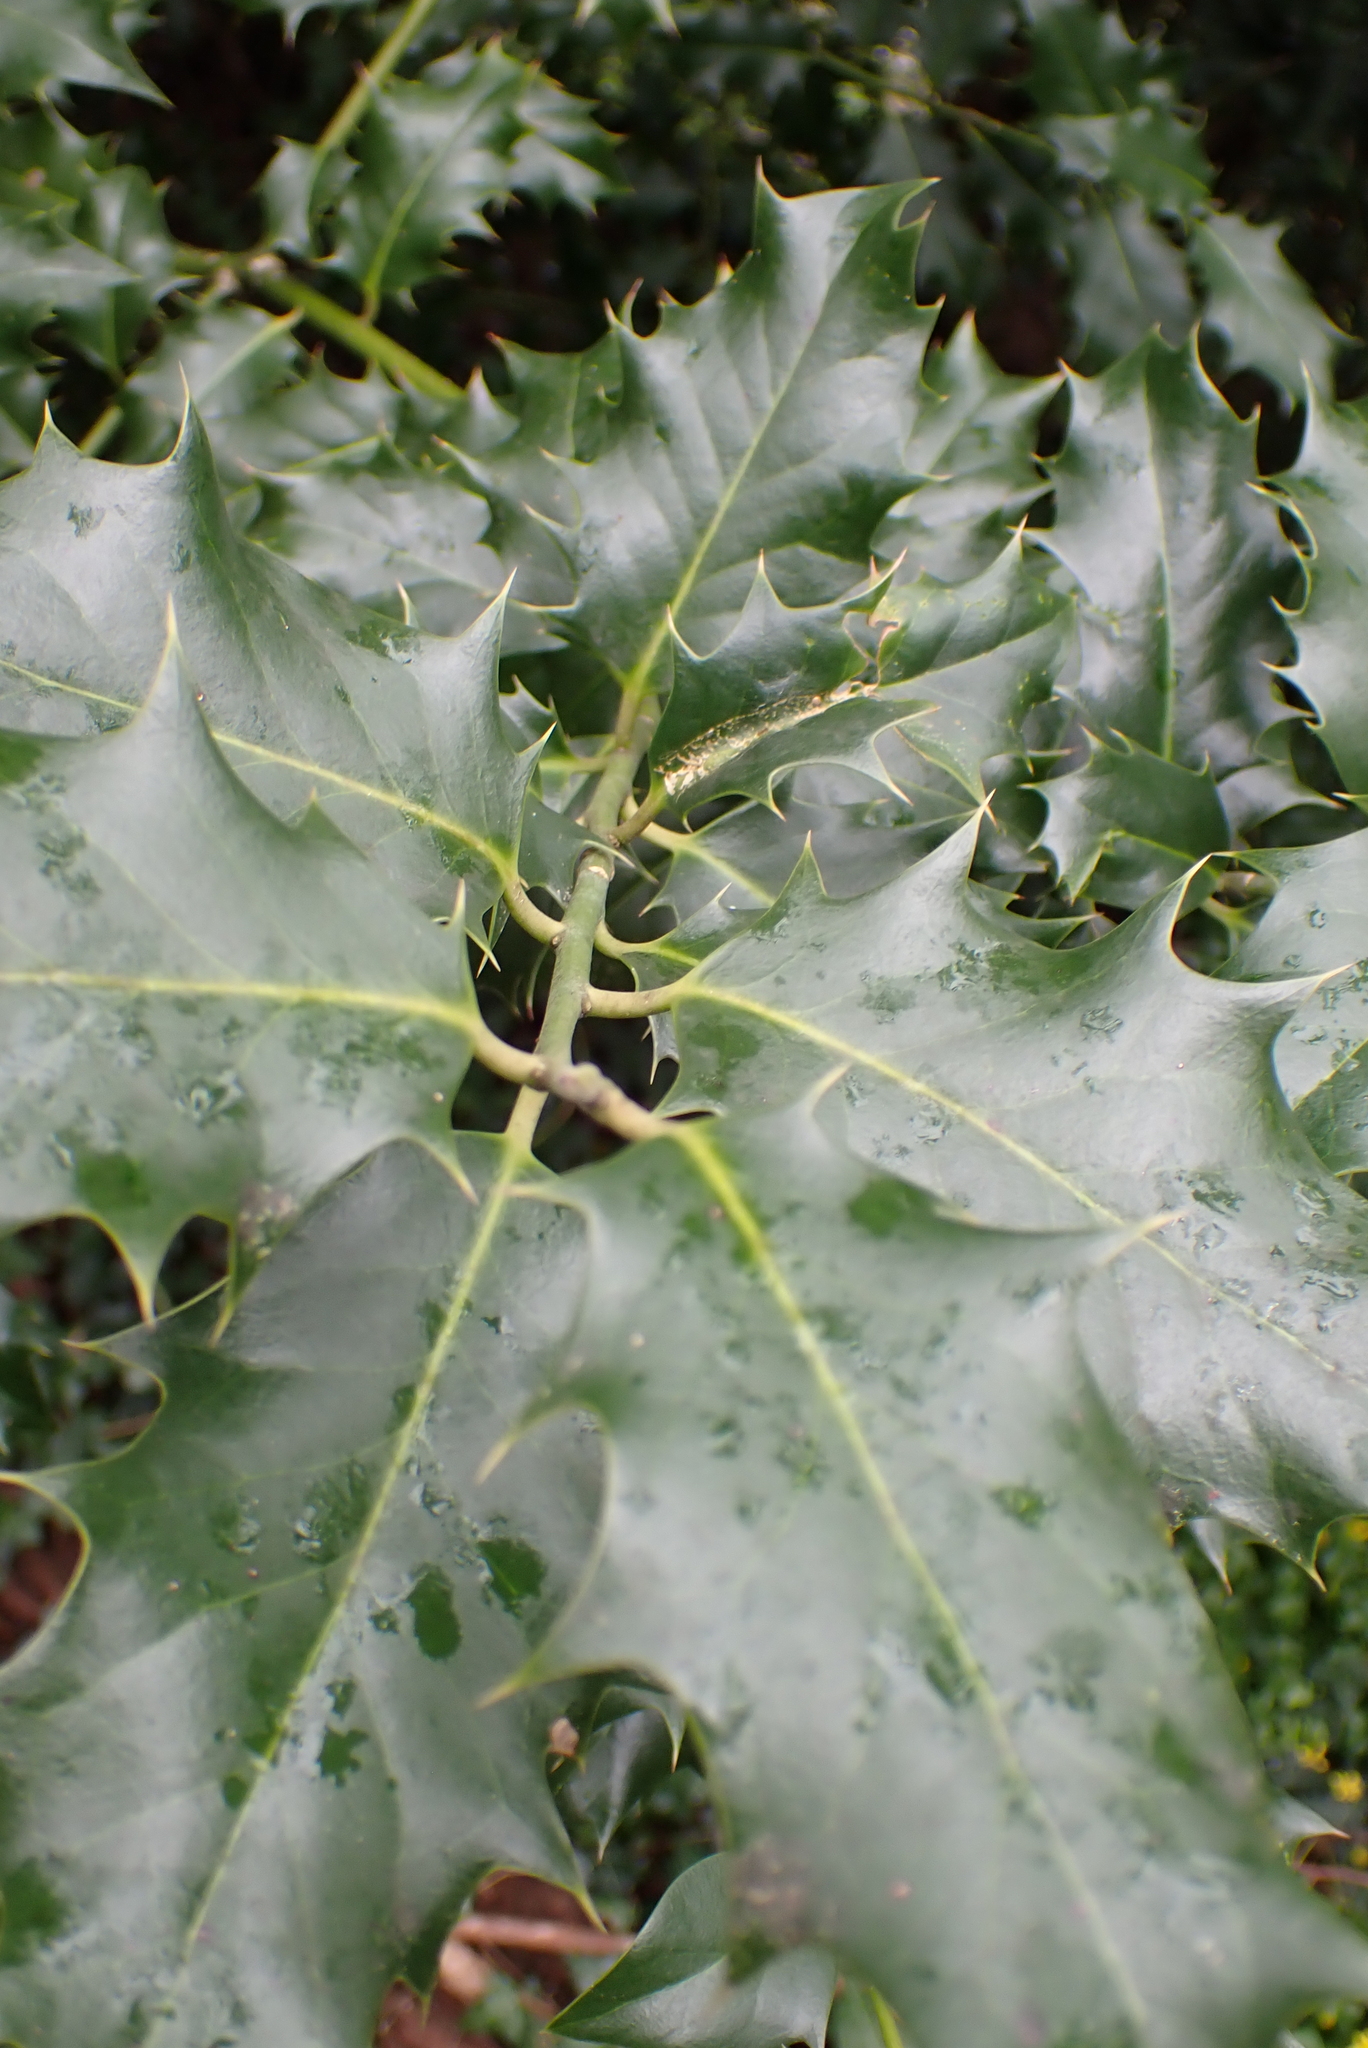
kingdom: Plantae
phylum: Tracheophyta
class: Magnoliopsida
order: Aquifoliales
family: Aquifoliaceae
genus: Ilex
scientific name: Ilex aquifolium
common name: English holly
